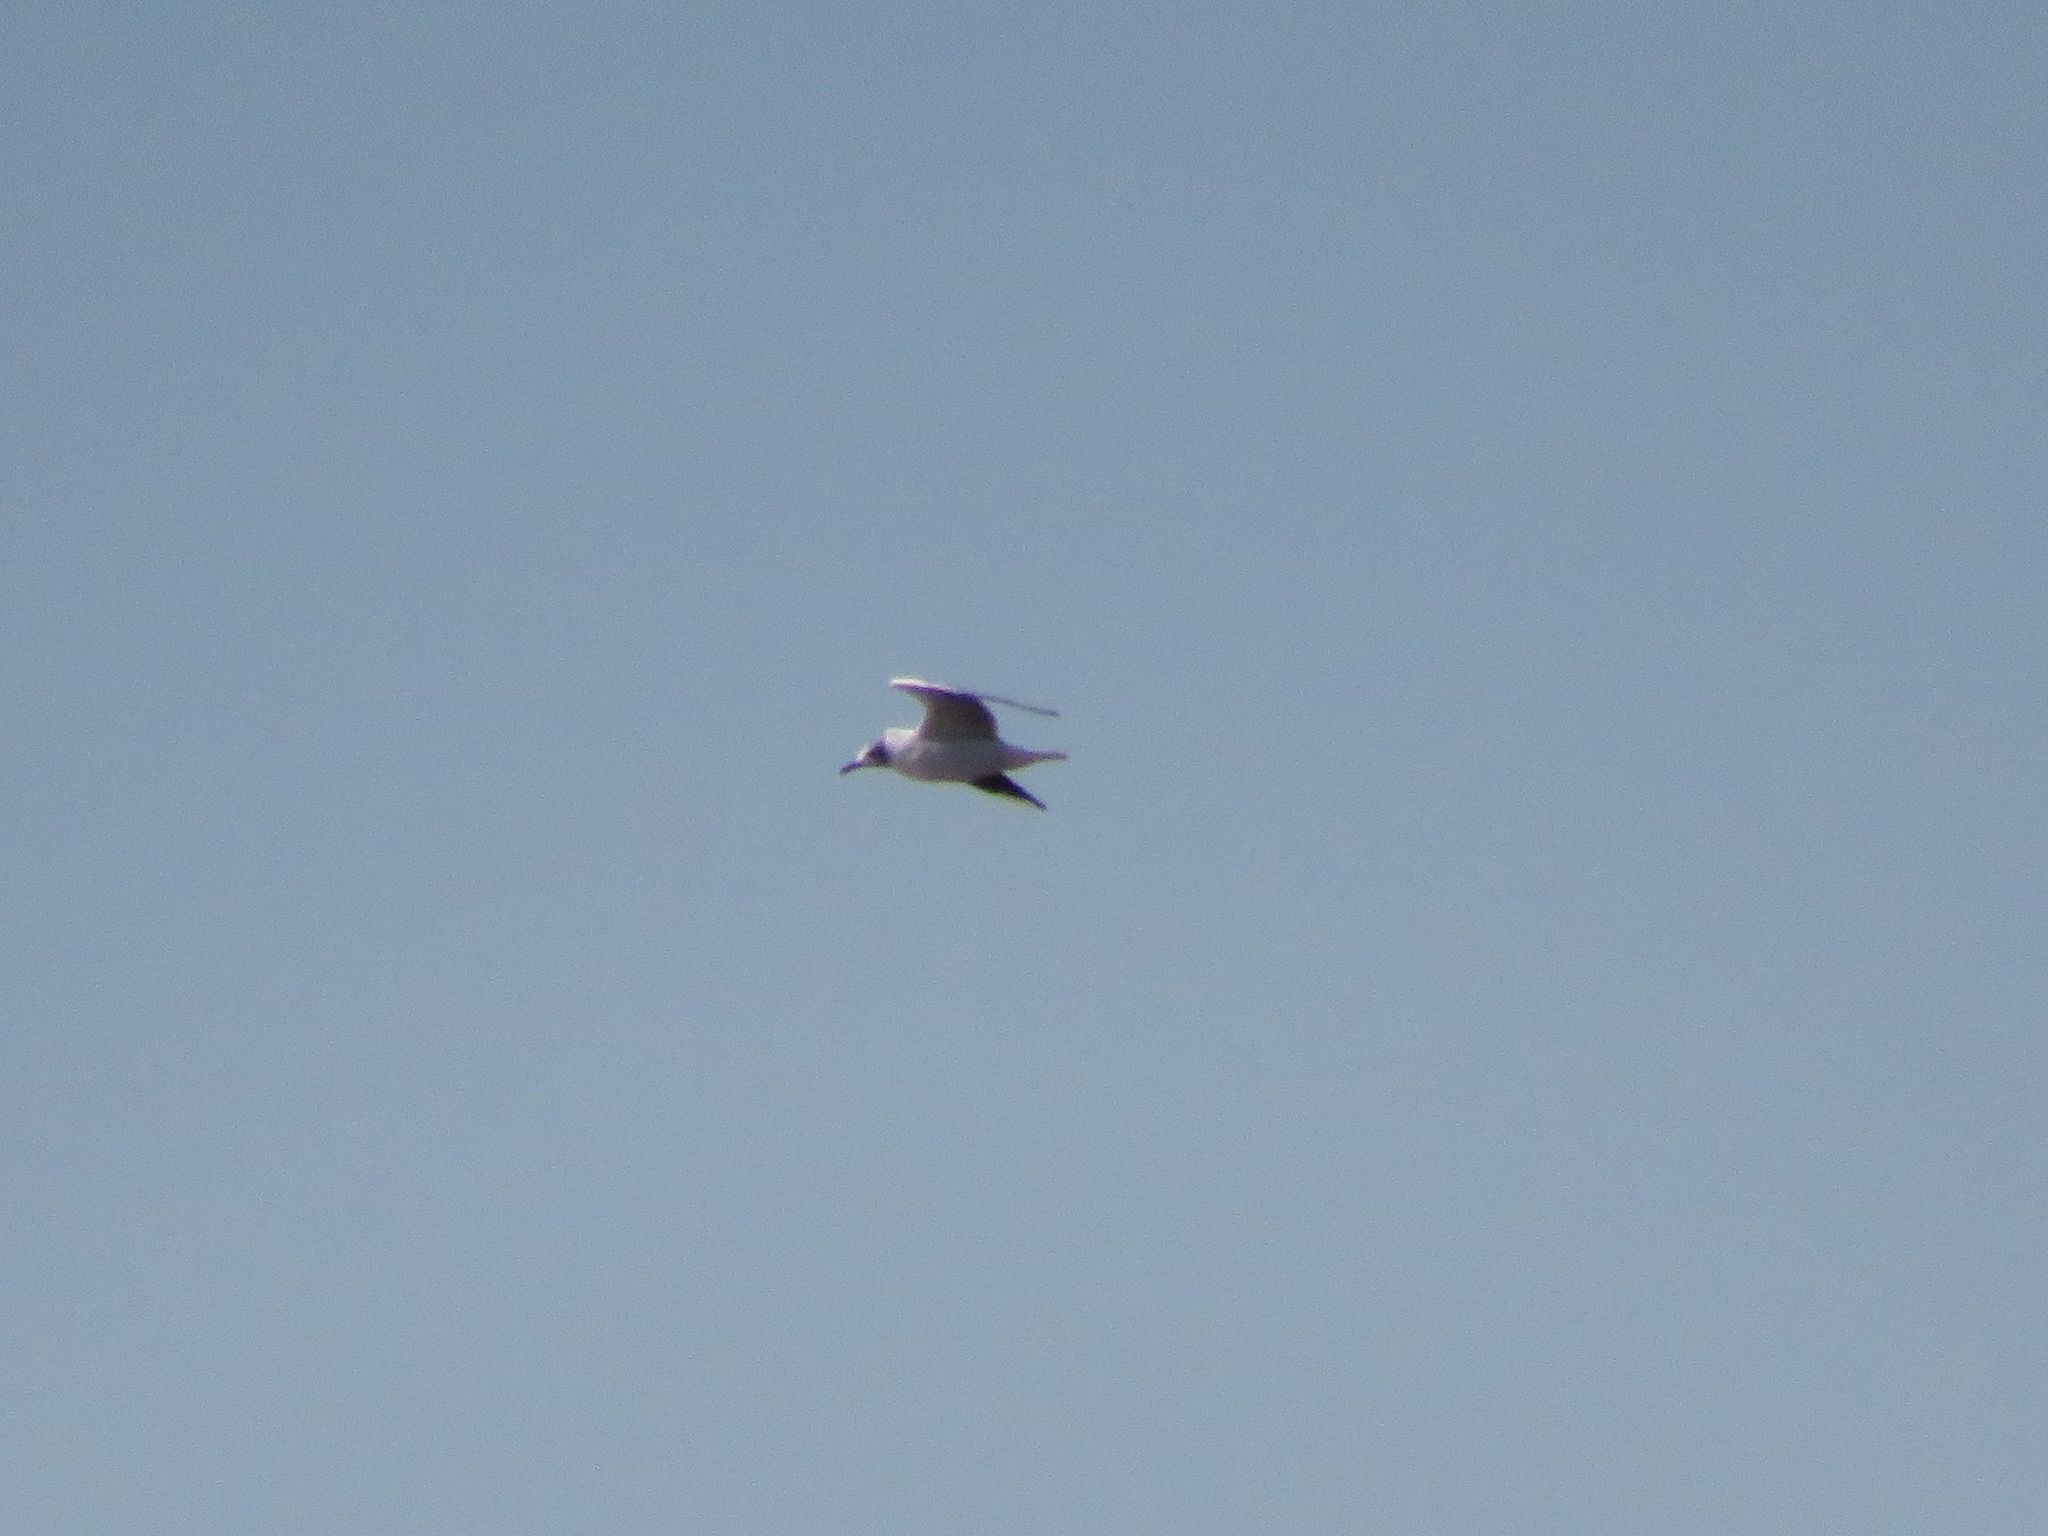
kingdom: Animalia
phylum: Chordata
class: Aves
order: Charadriiformes
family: Laridae
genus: Chroicocephalus
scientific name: Chroicocephalus maculipennis
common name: Brown-hooded gull
